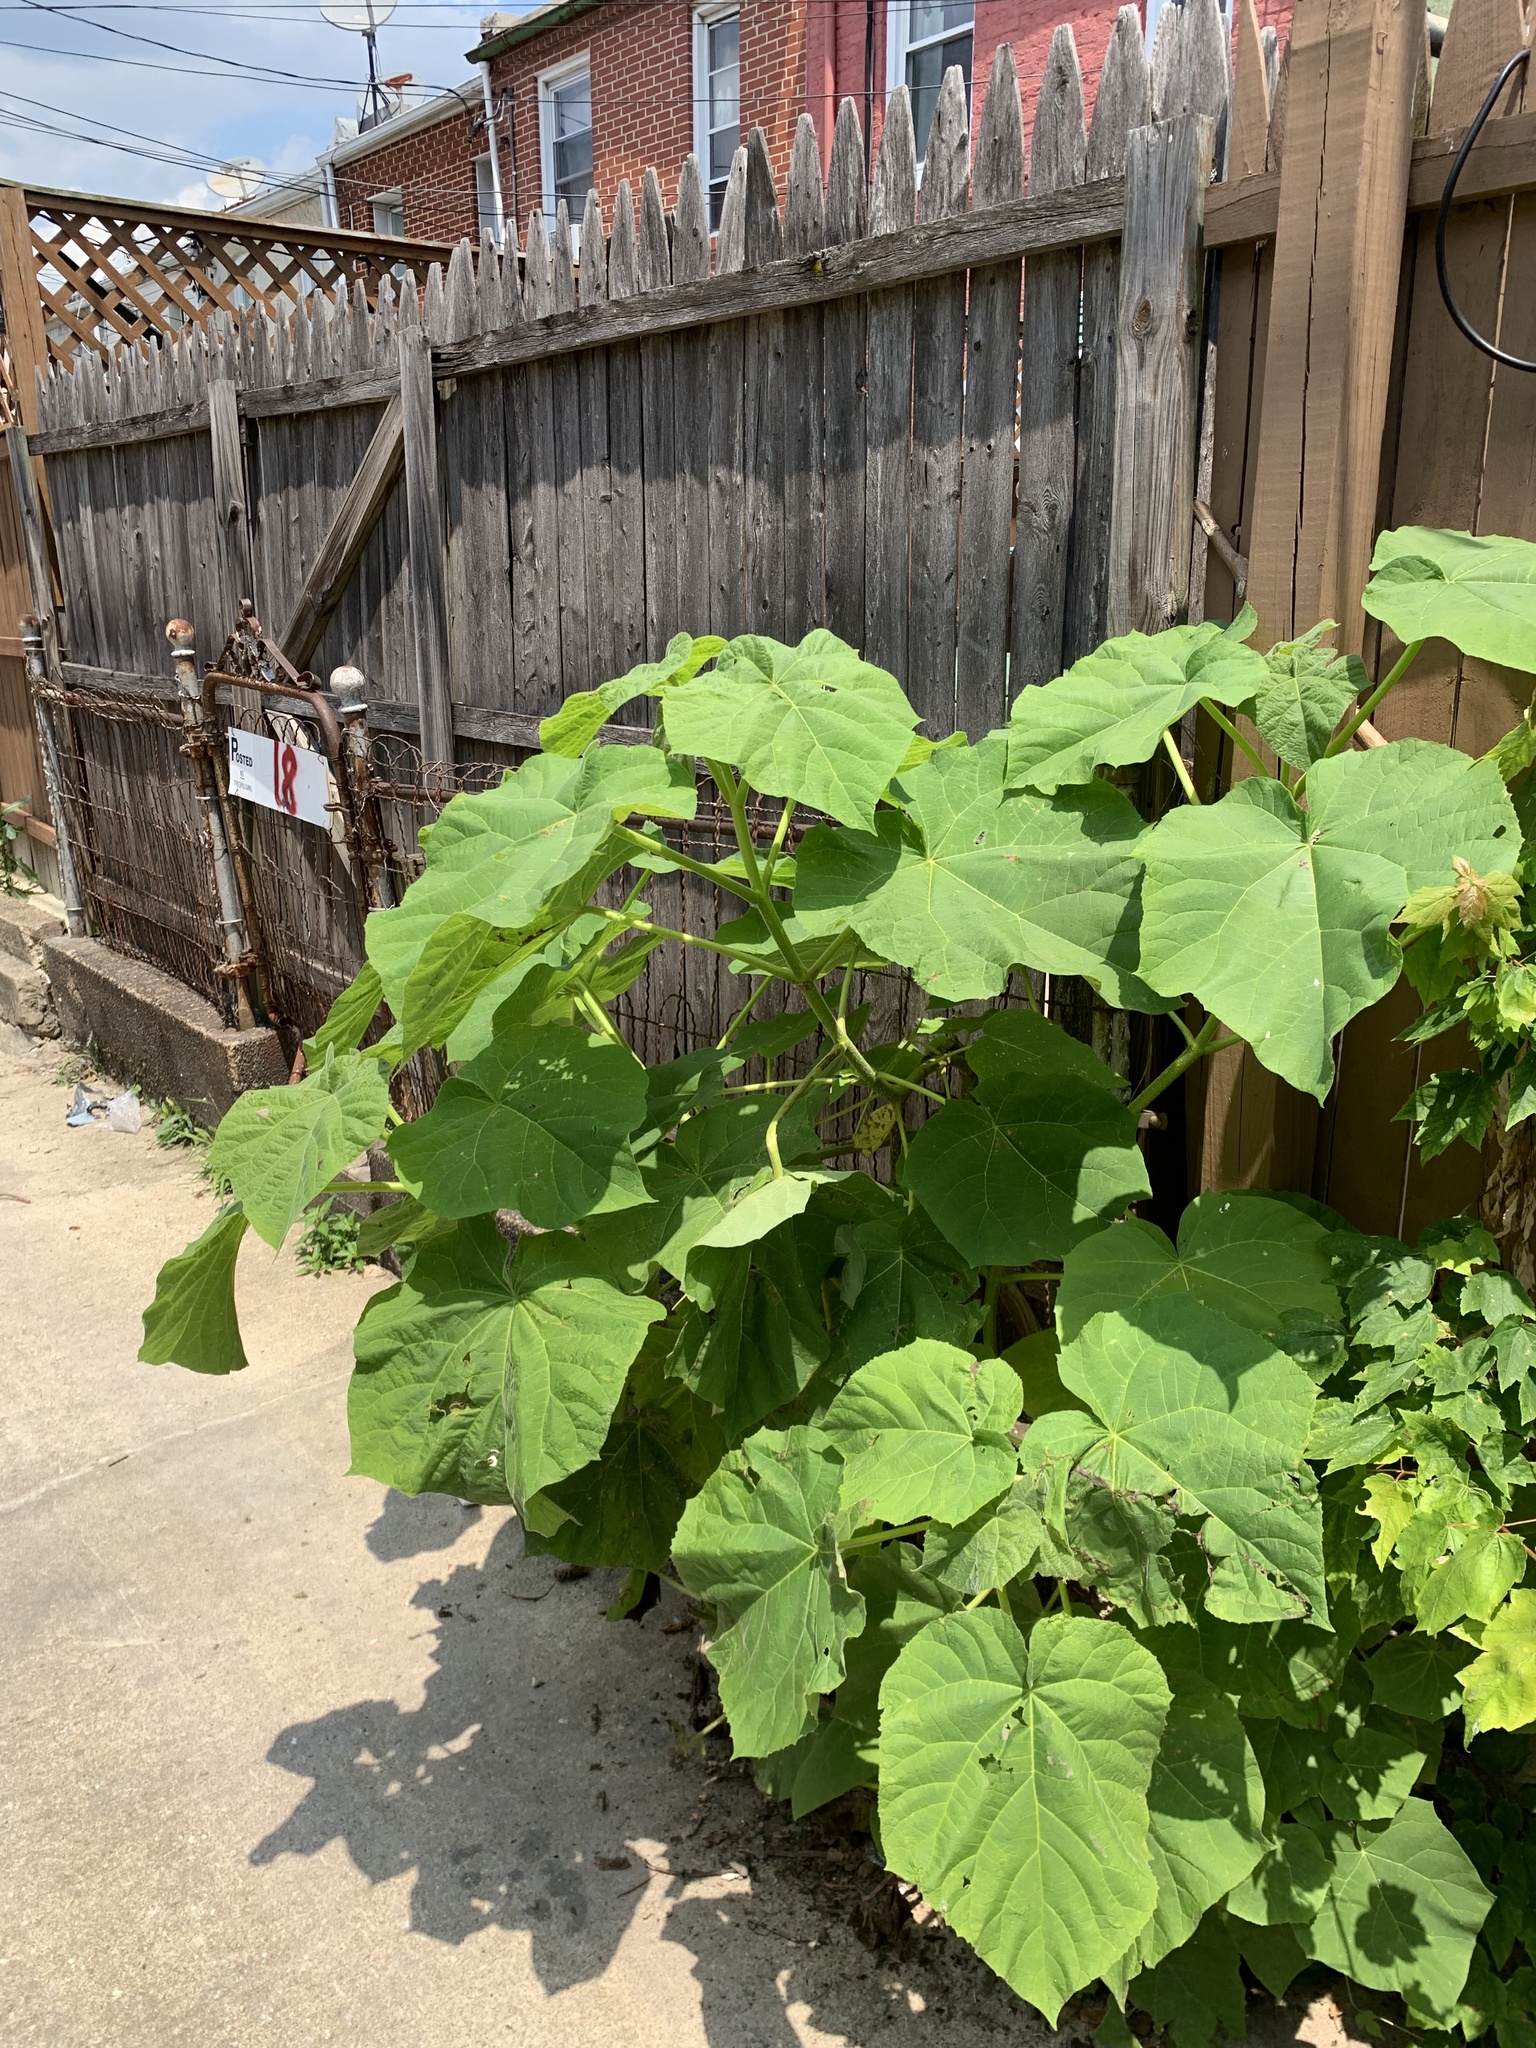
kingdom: Plantae
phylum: Tracheophyta
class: Magnoliopsida
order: Lamiales
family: Paulowniaceae
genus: Paulownia
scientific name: Paulownia tomentosa
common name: Foxglove-tree
